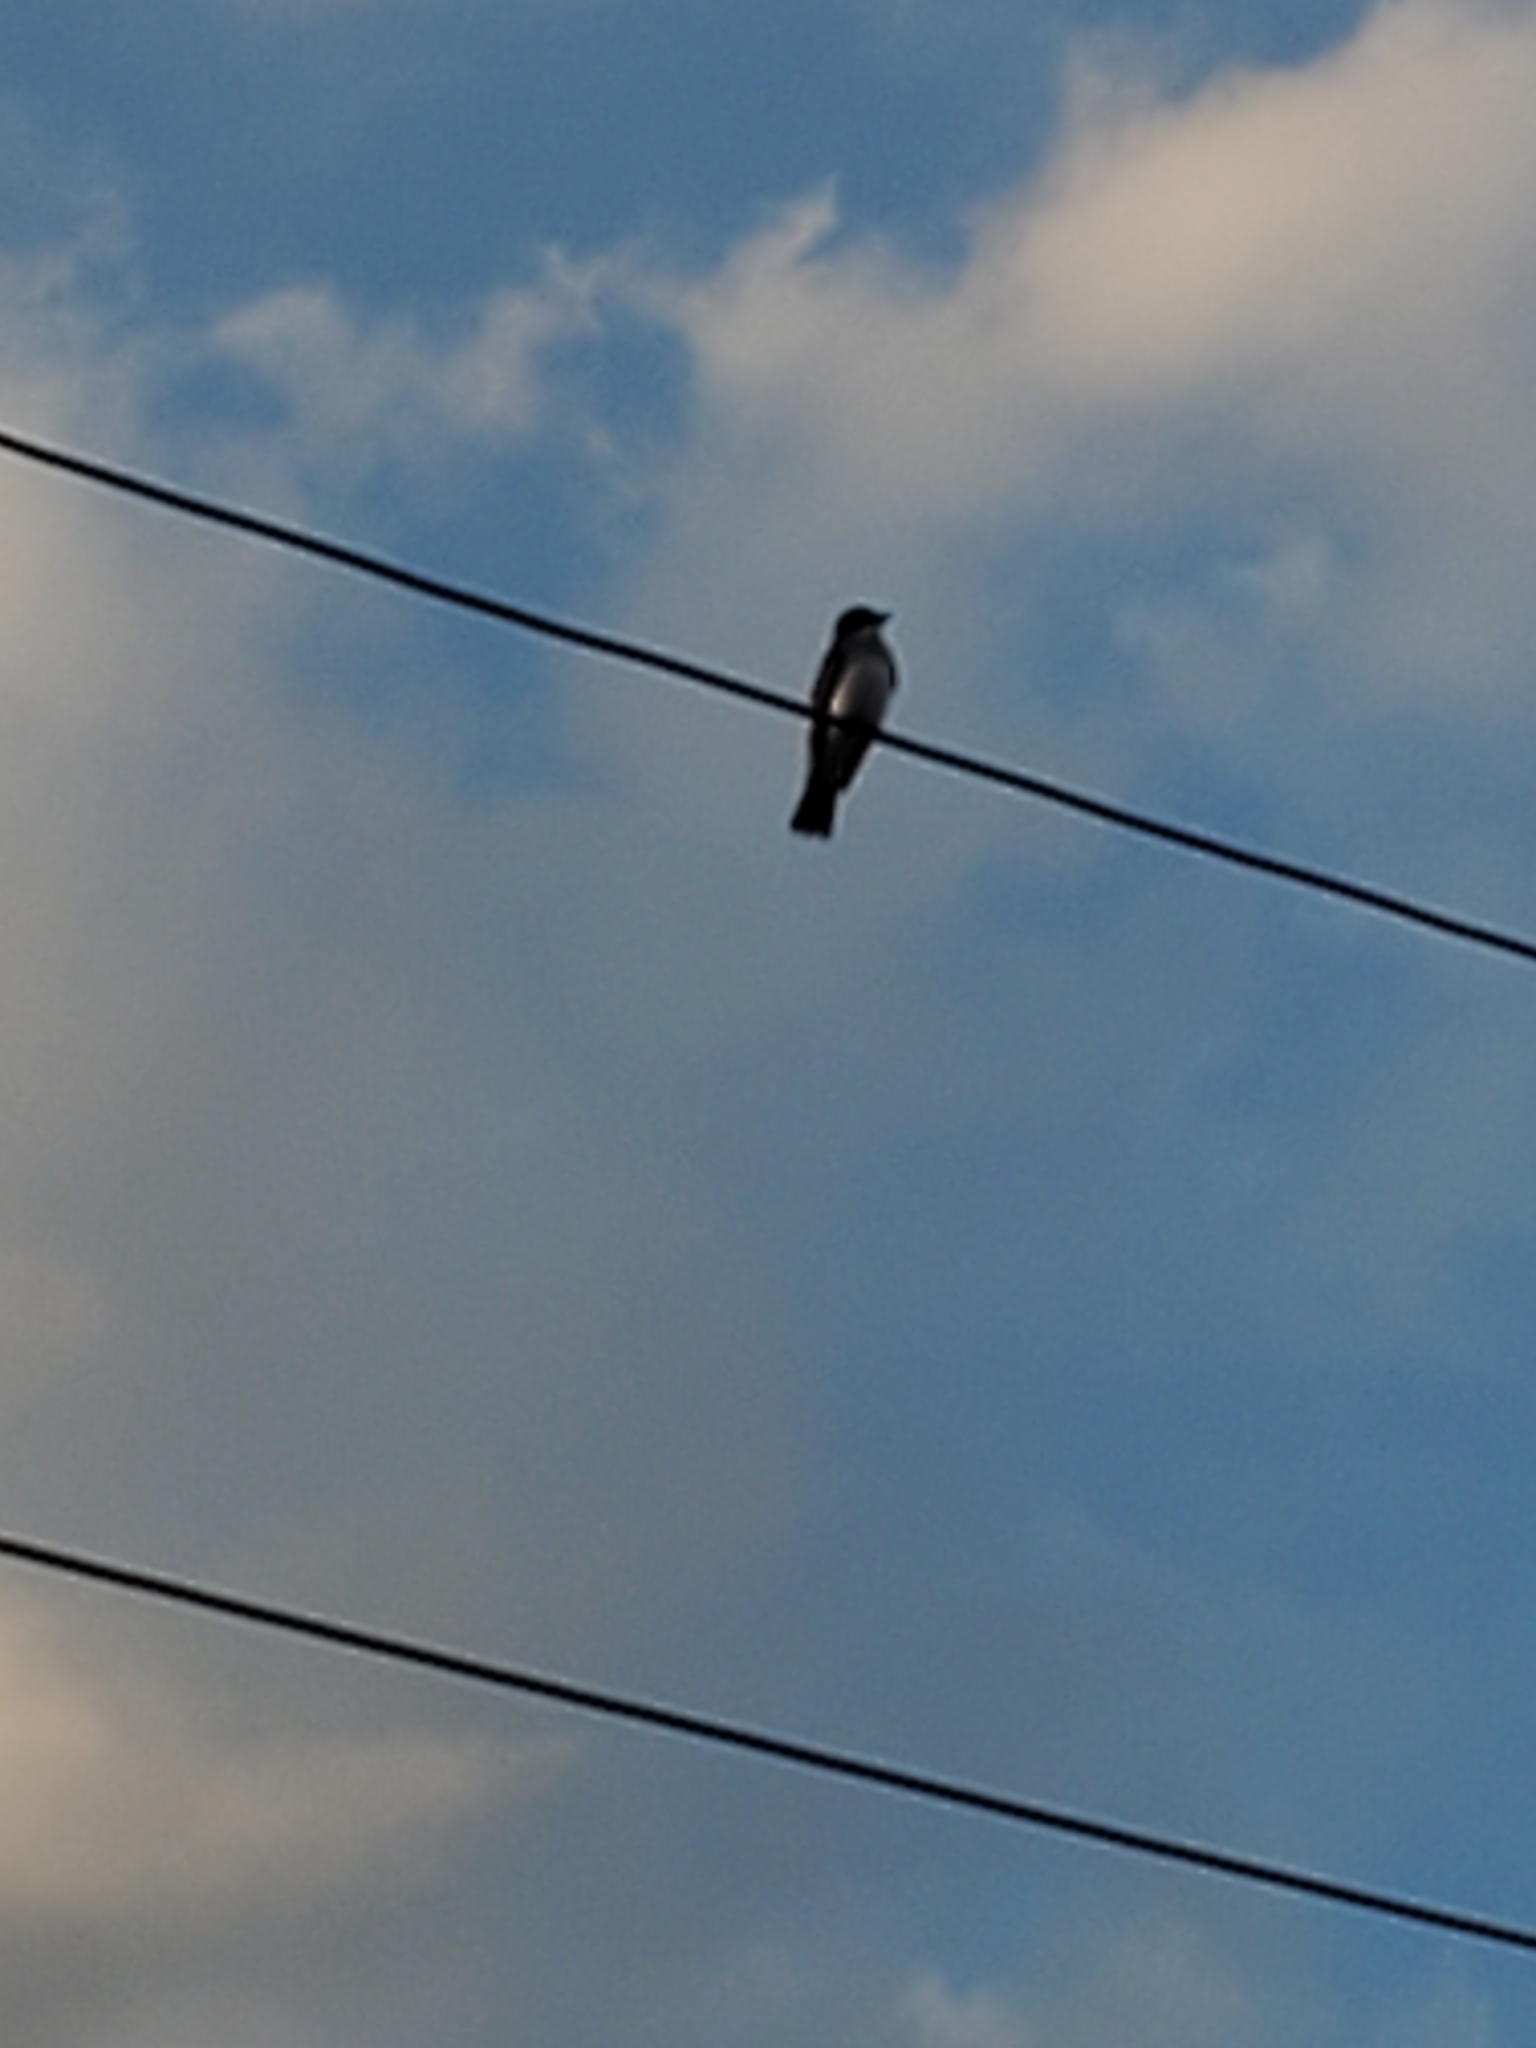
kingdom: Animalia
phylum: Chordata
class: Aves
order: Passeriformes
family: Tyrannidae
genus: Tyrannus
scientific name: Tyrannus tyrannus
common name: Eastern kingbird
